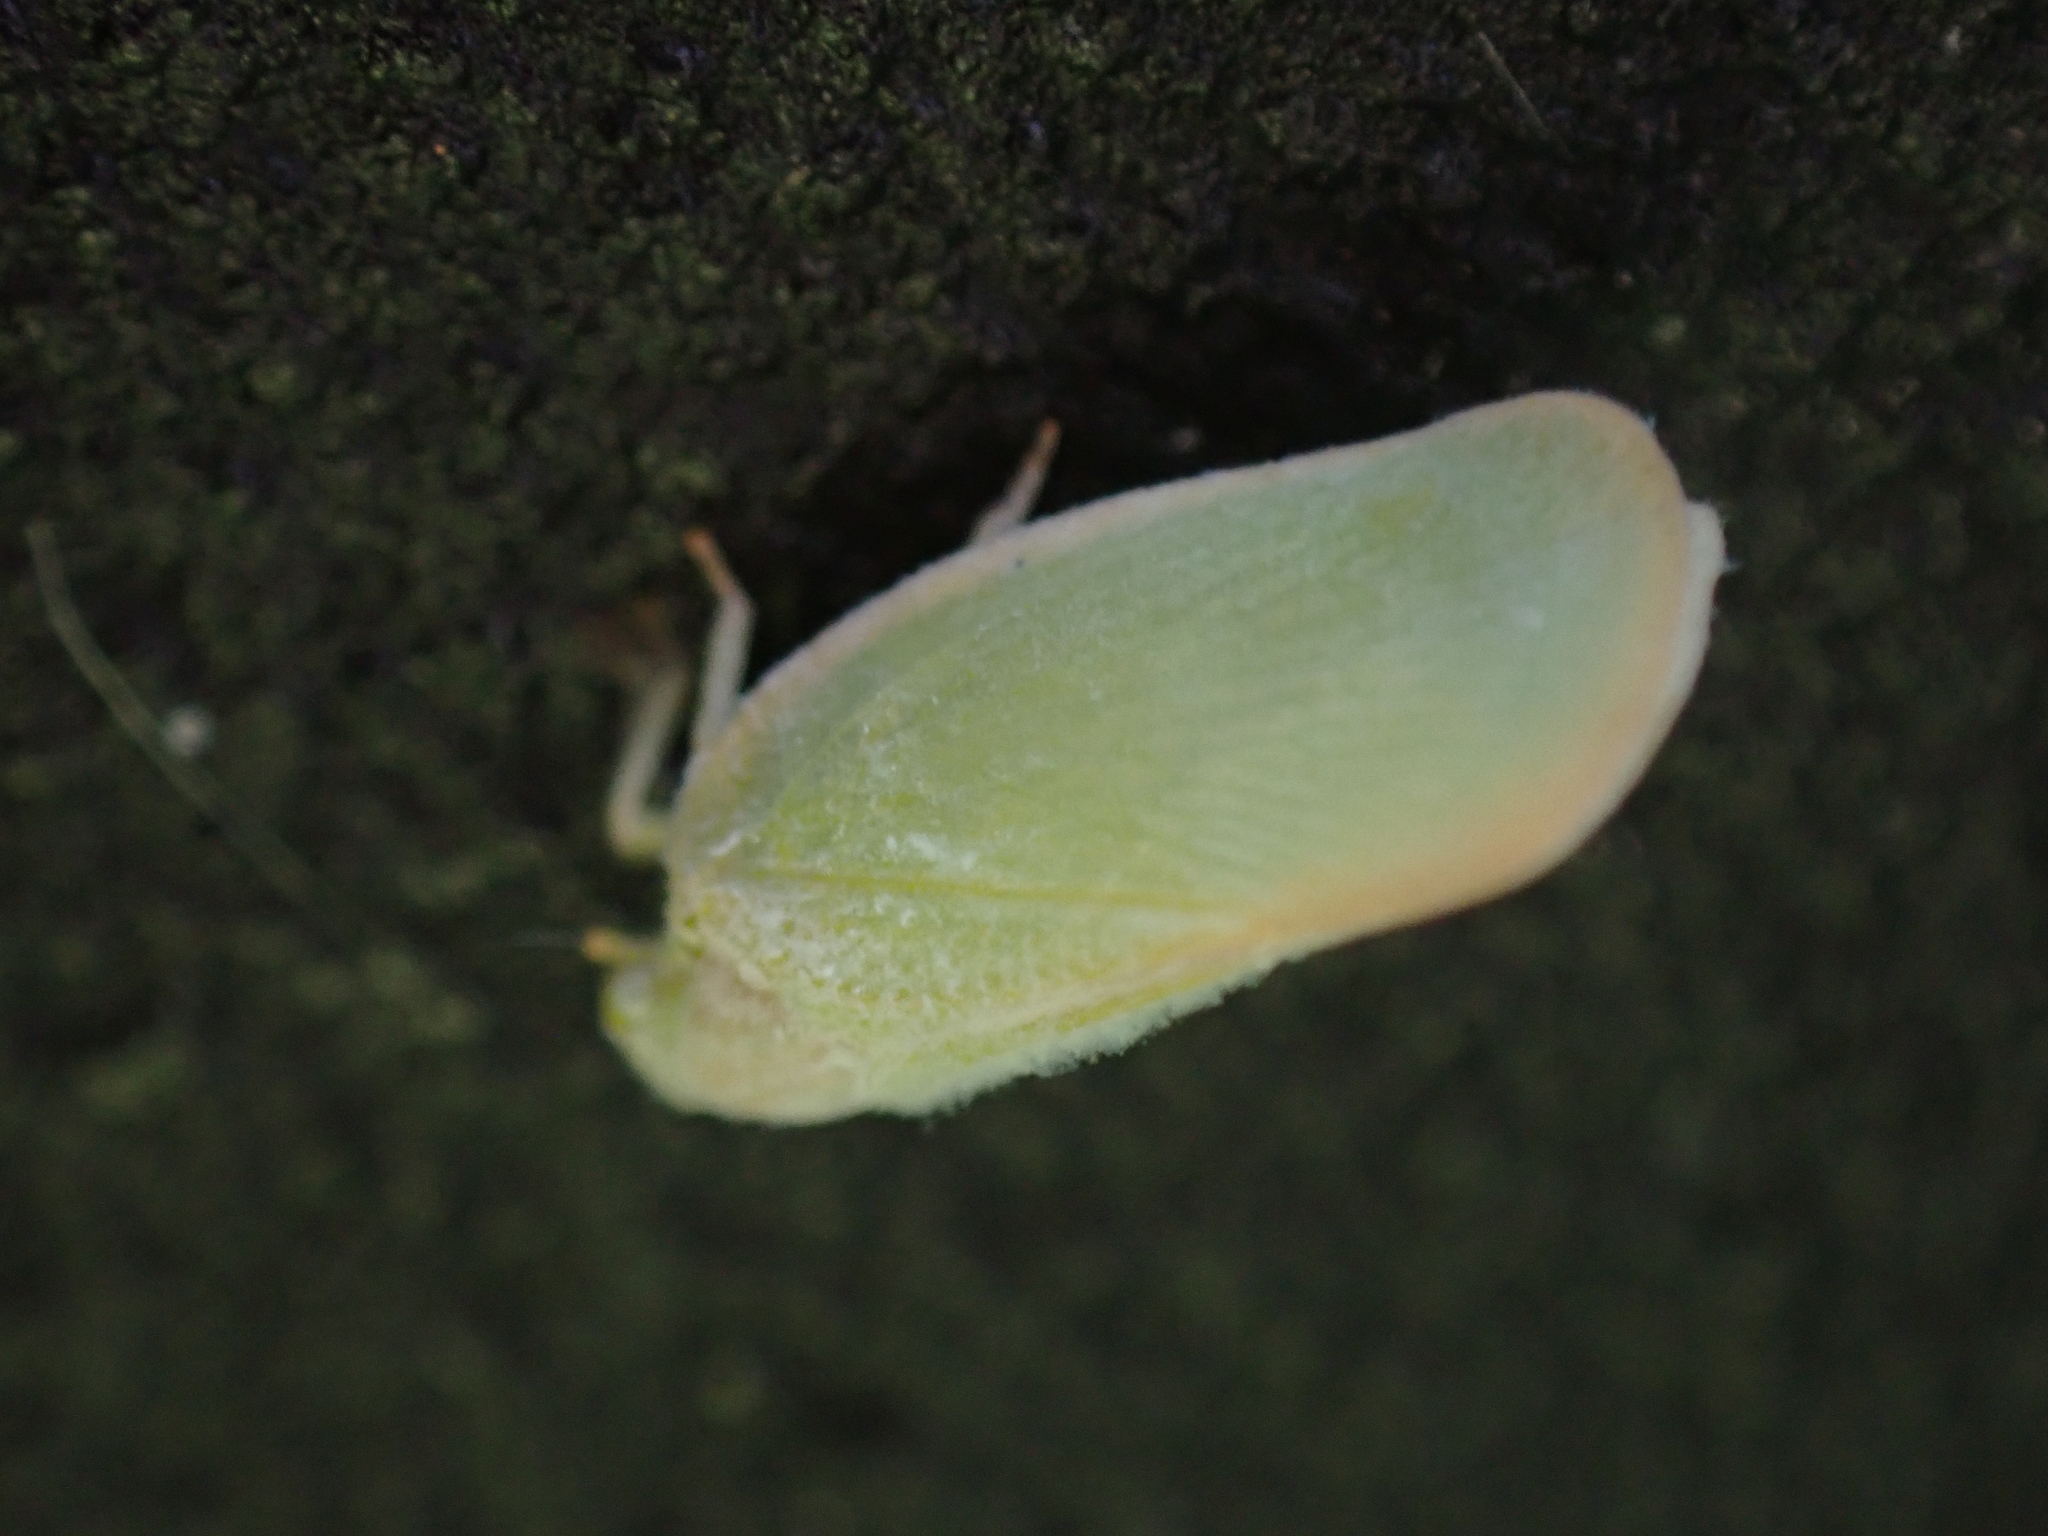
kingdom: Animalia
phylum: Arthropoda
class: Insecta
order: Hemiptera
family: Flatidae
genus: Ormenoides
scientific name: Ormenoides venusta
